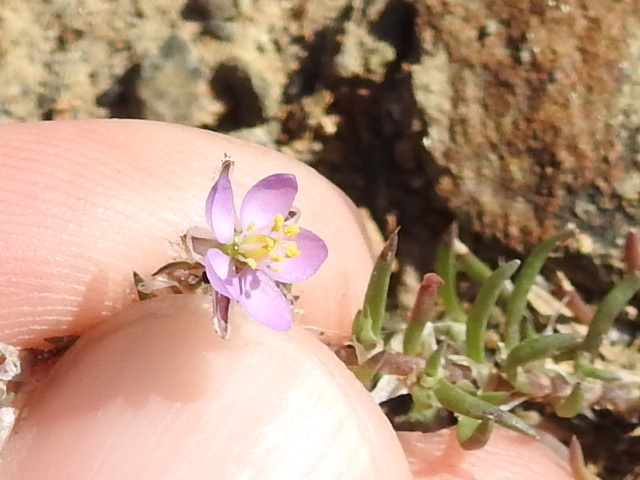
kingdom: Plantae
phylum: Tracheophyta
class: Magnoliopsida
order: Caryophyllales
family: Caryophyllaceae
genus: Spergularia
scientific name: Spergularia rubra
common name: Red sand-spurrey
